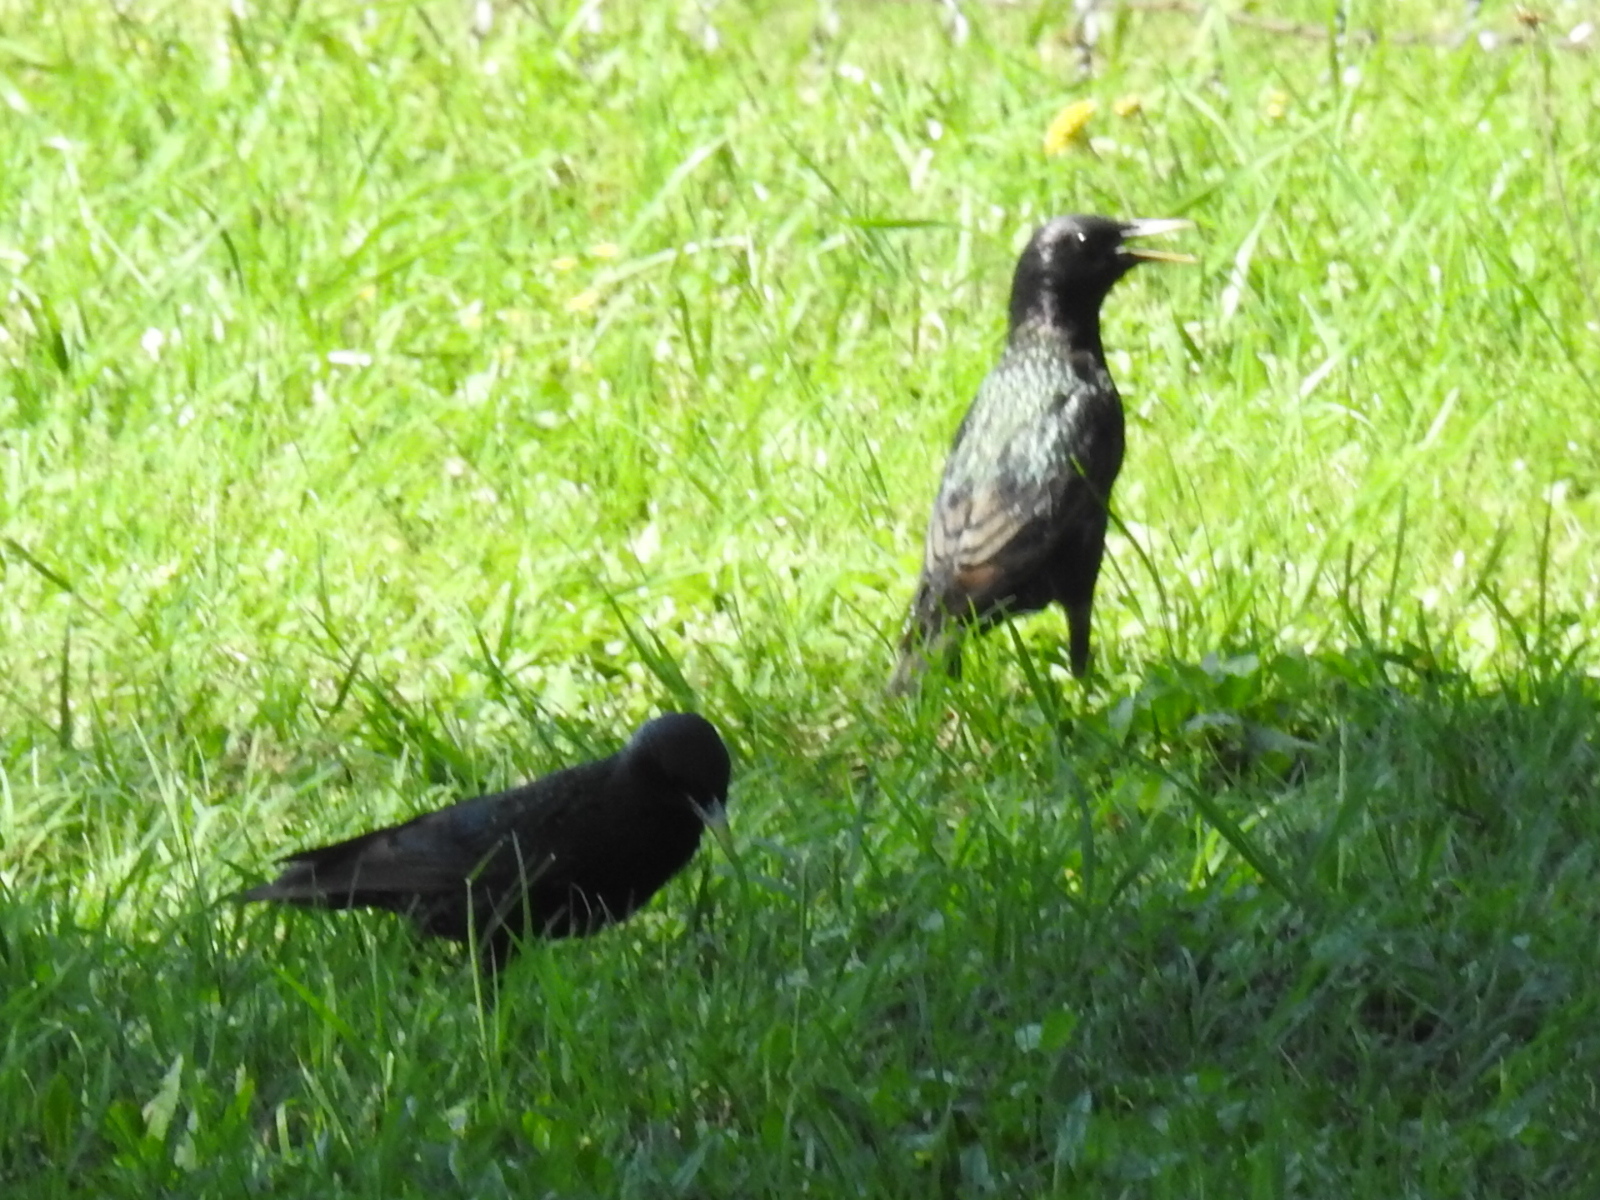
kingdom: Animalia
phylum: Chordata
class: Aves
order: Passeriformes
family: Sturnidae
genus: Sturnus
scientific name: Sturnus vulgaris
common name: Common starling
